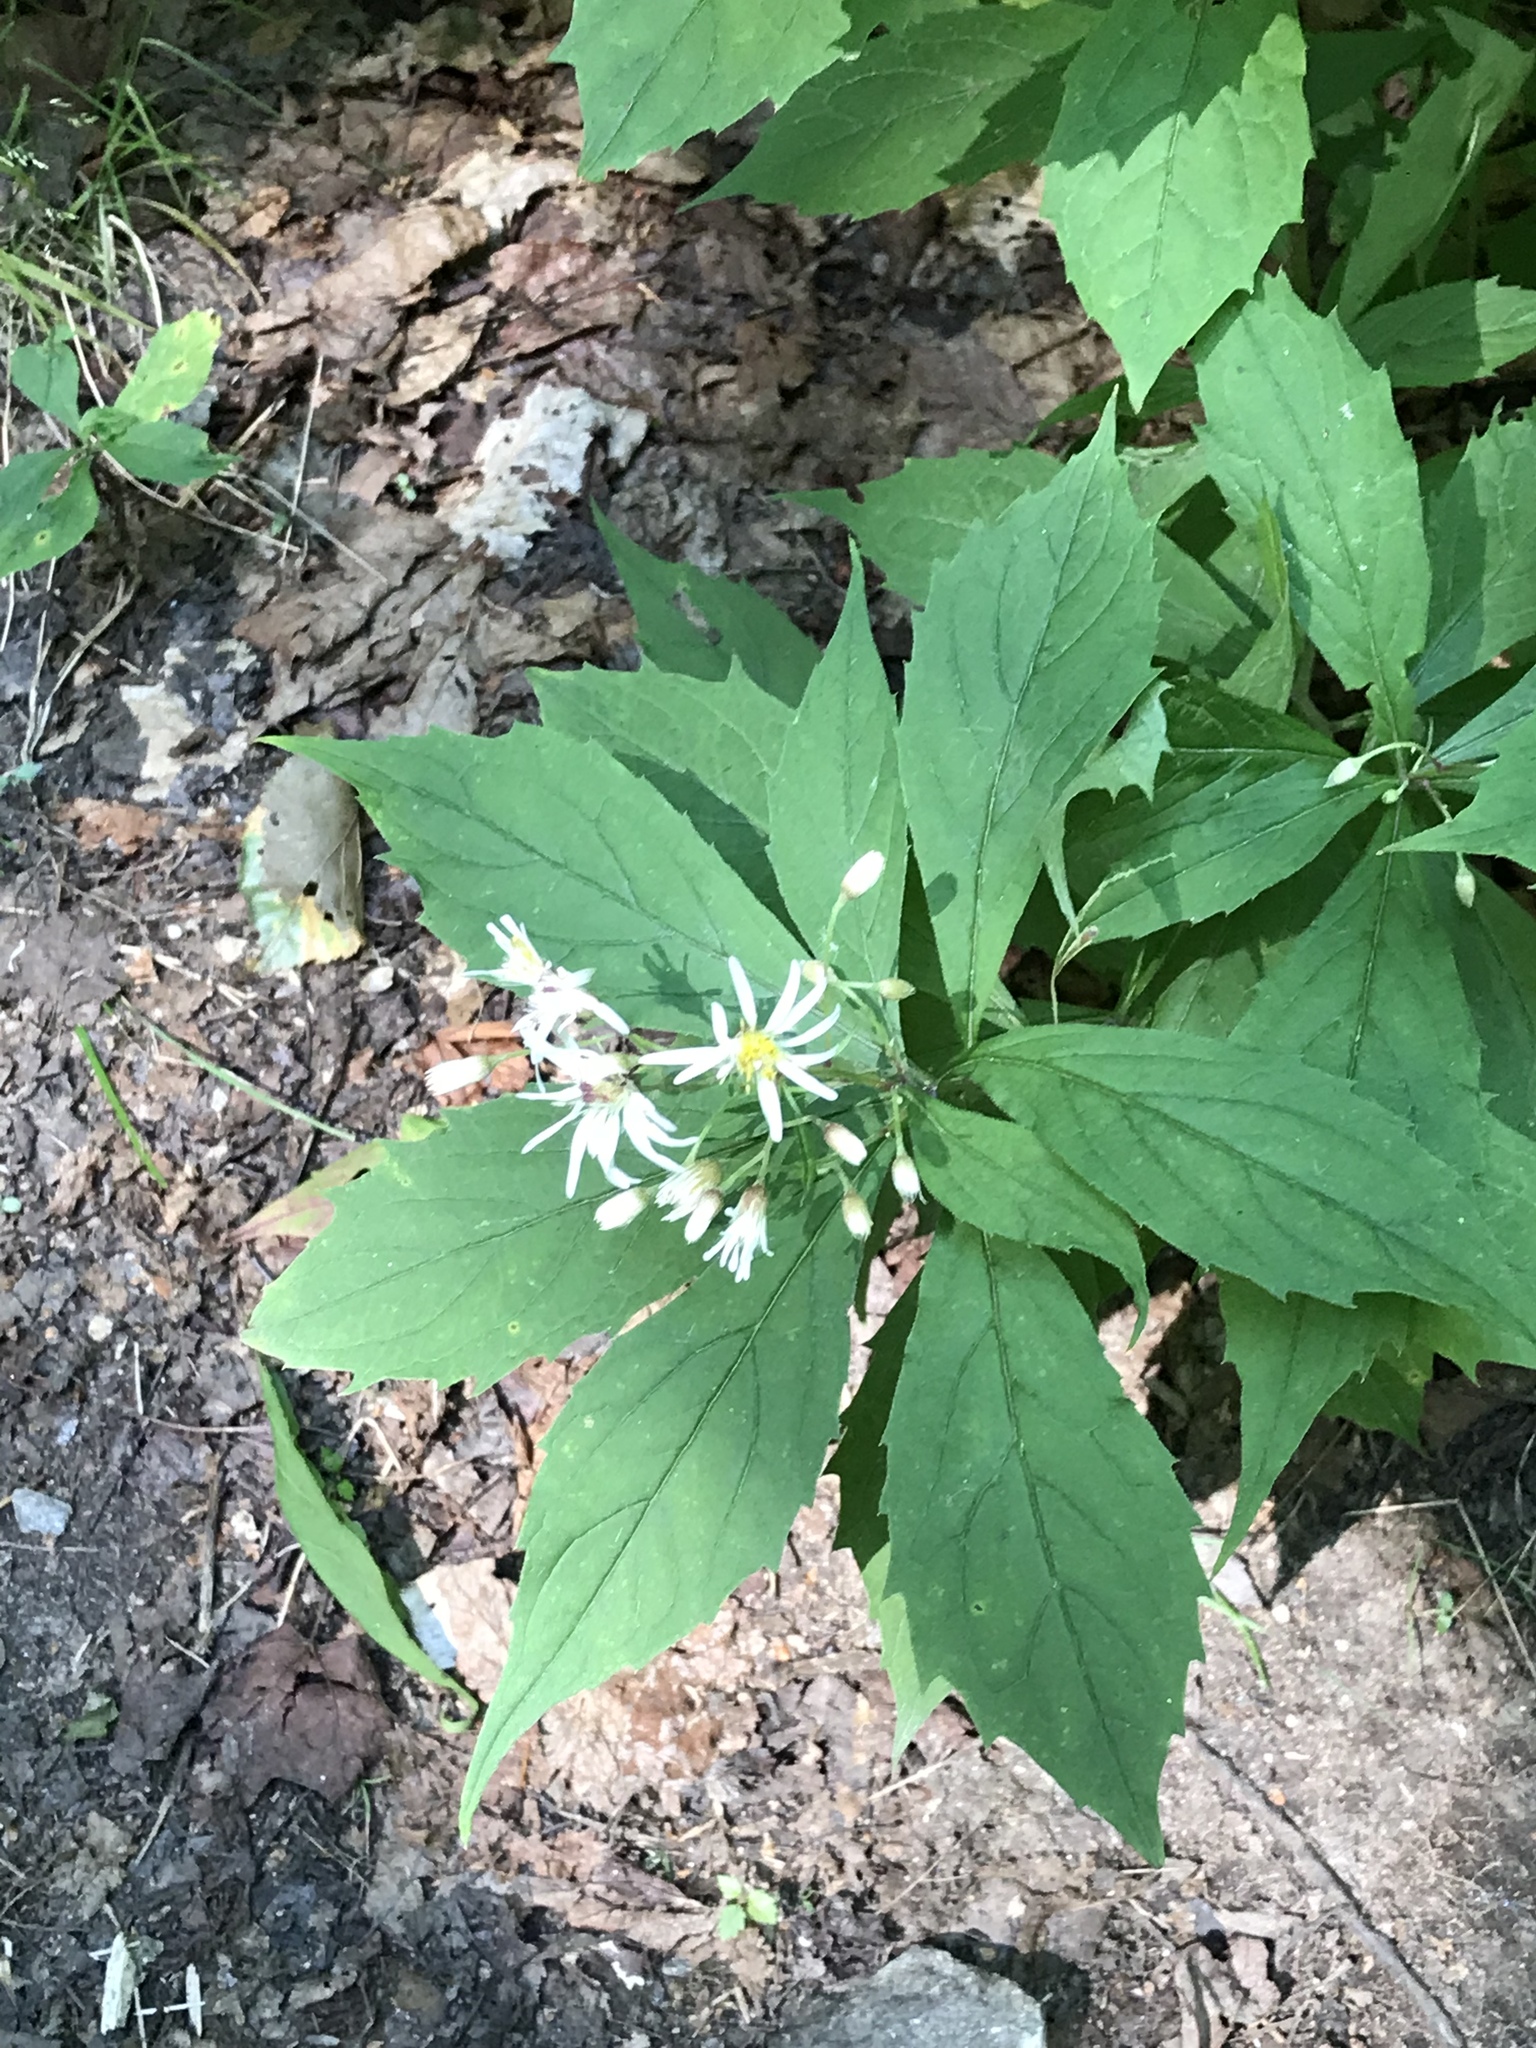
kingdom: Plantae
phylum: Tracheophyta
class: Magnoliopsida
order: Asterales
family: Asteraceae
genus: Oclemena
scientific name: Oclemena acuminata
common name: Mountain aster
